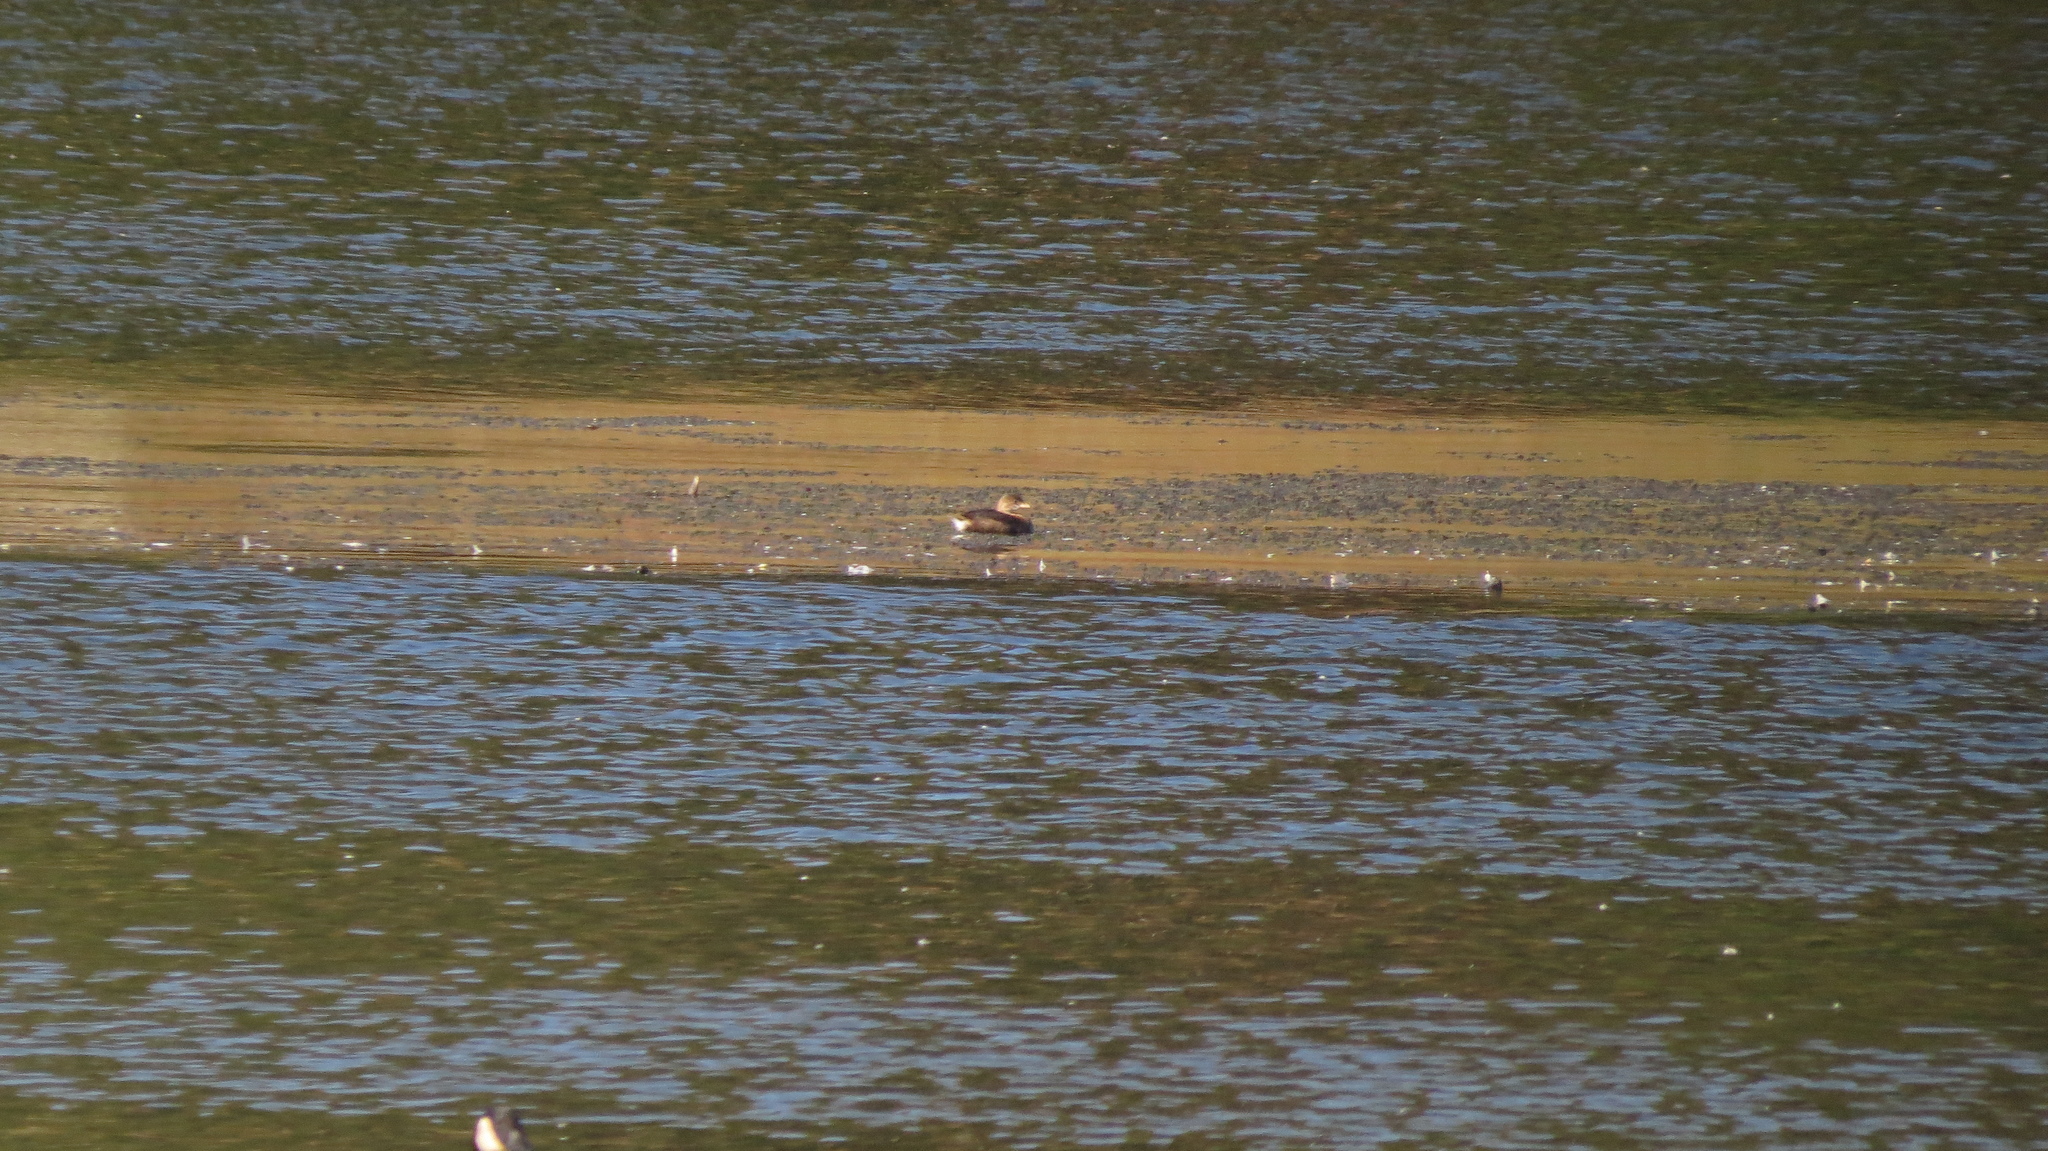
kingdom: Animalia
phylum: Chordata
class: Aves
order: Podicipediformes
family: Podicipedidae
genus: Podilymbus
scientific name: Podilymbus podiceps
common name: Pied-billed grebe
